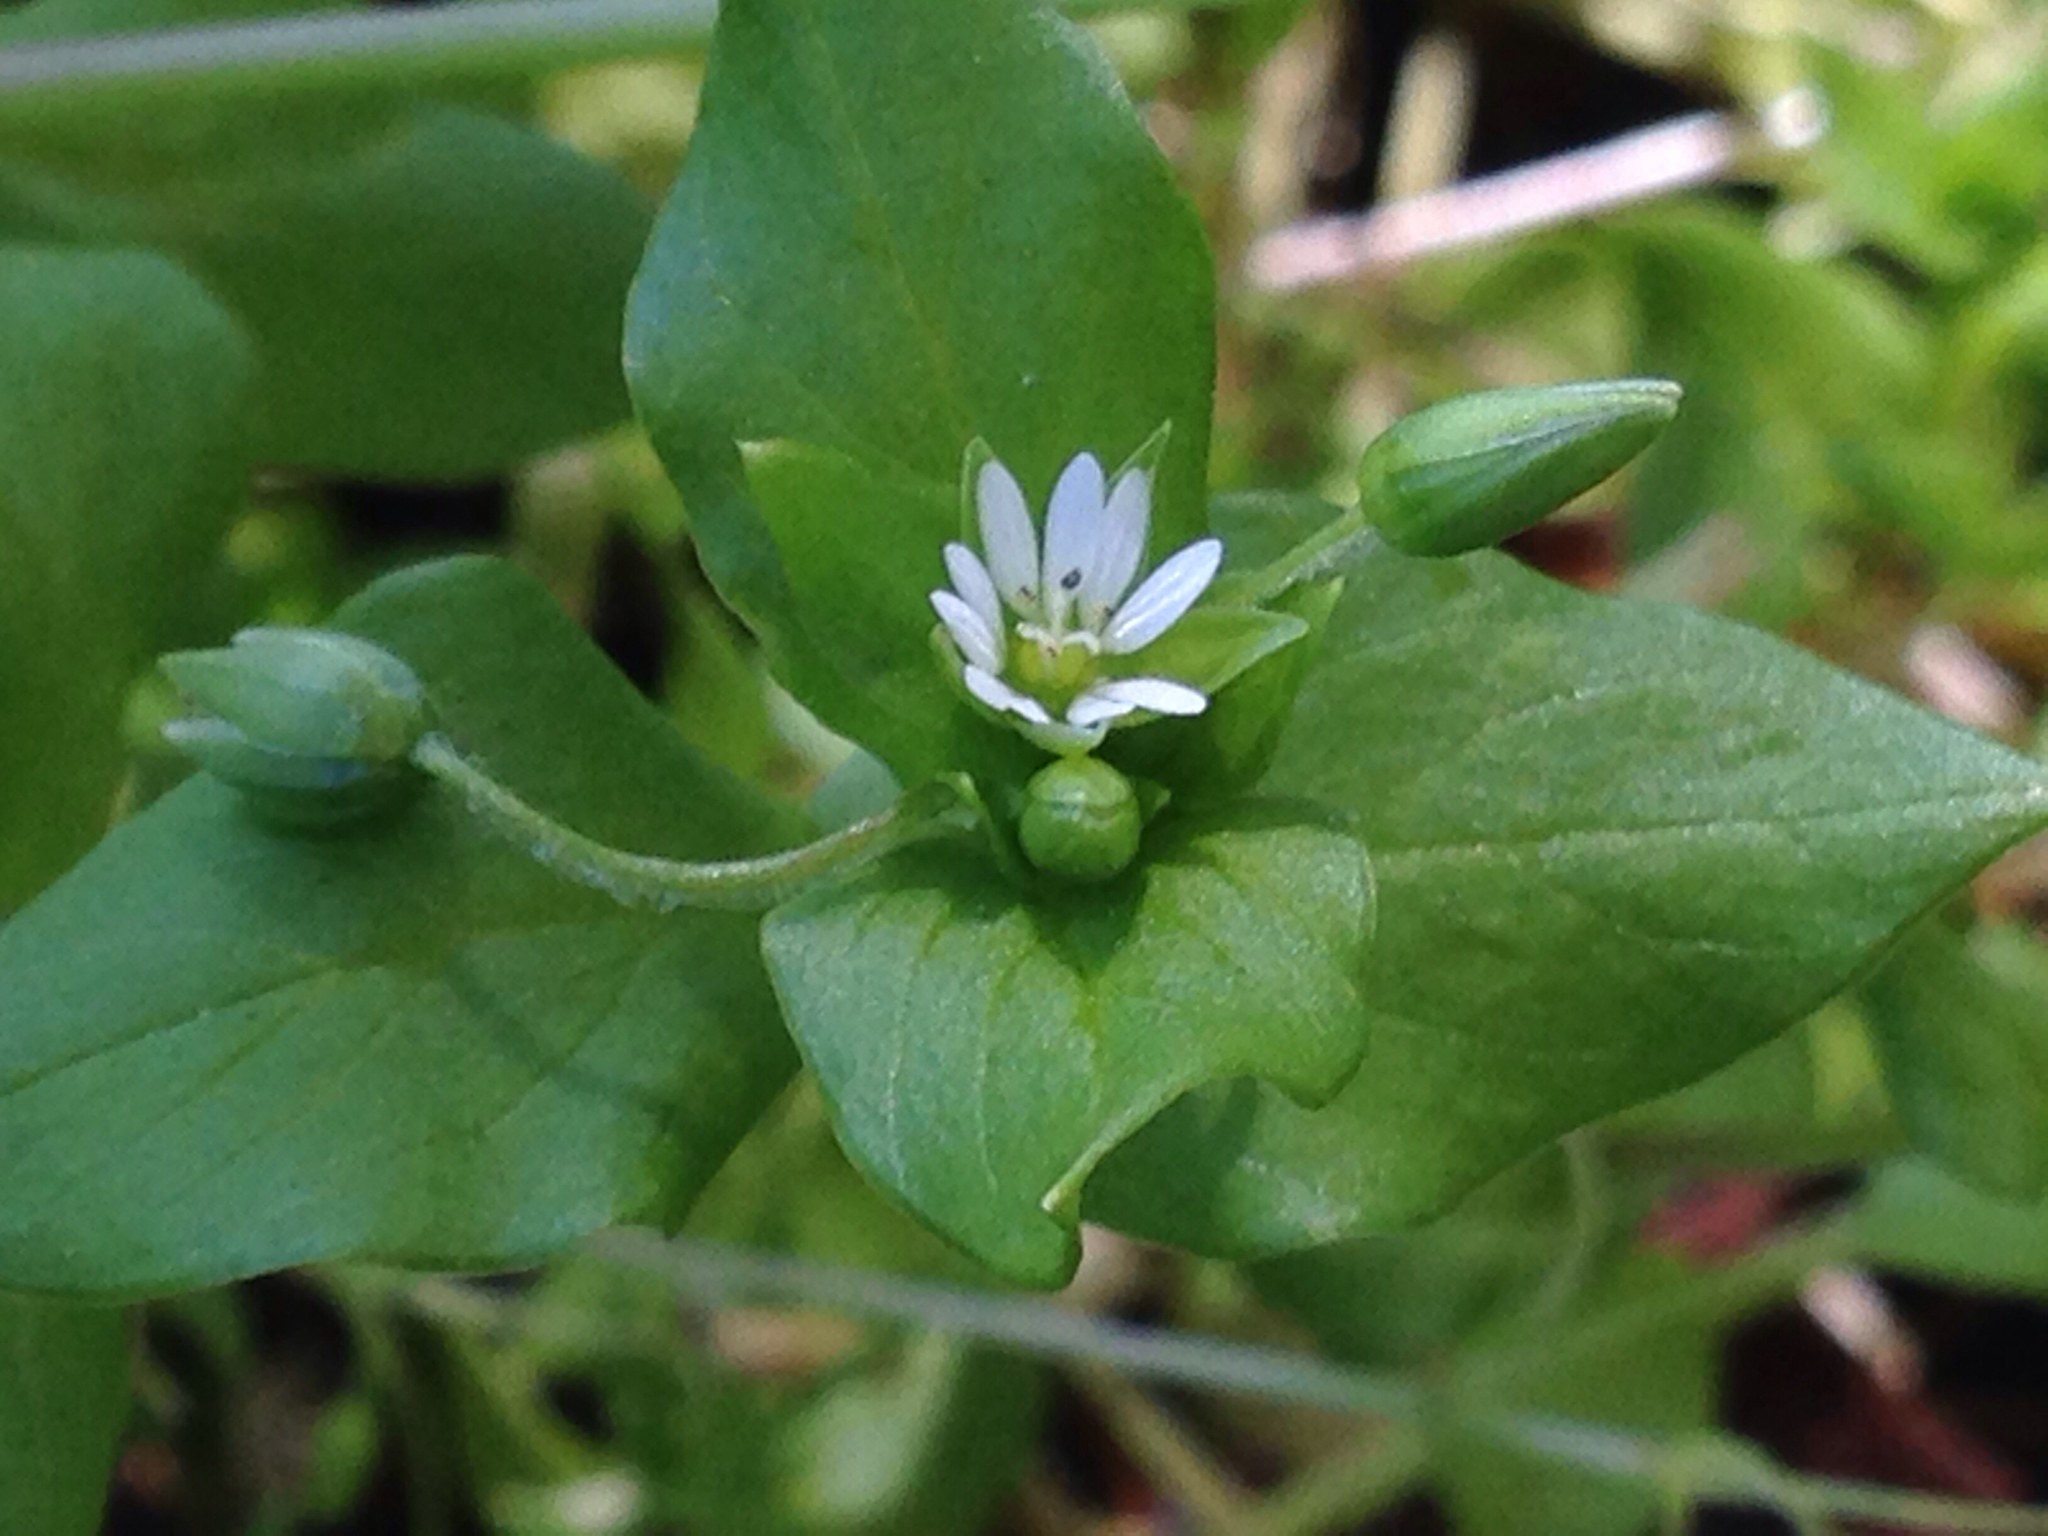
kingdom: Plantae
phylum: Tracheophyta
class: Magnoliopsida
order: Caryophyllales
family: Caryophyllaceae
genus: Stellaria
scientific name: Stellaria media
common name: Common chickweed
